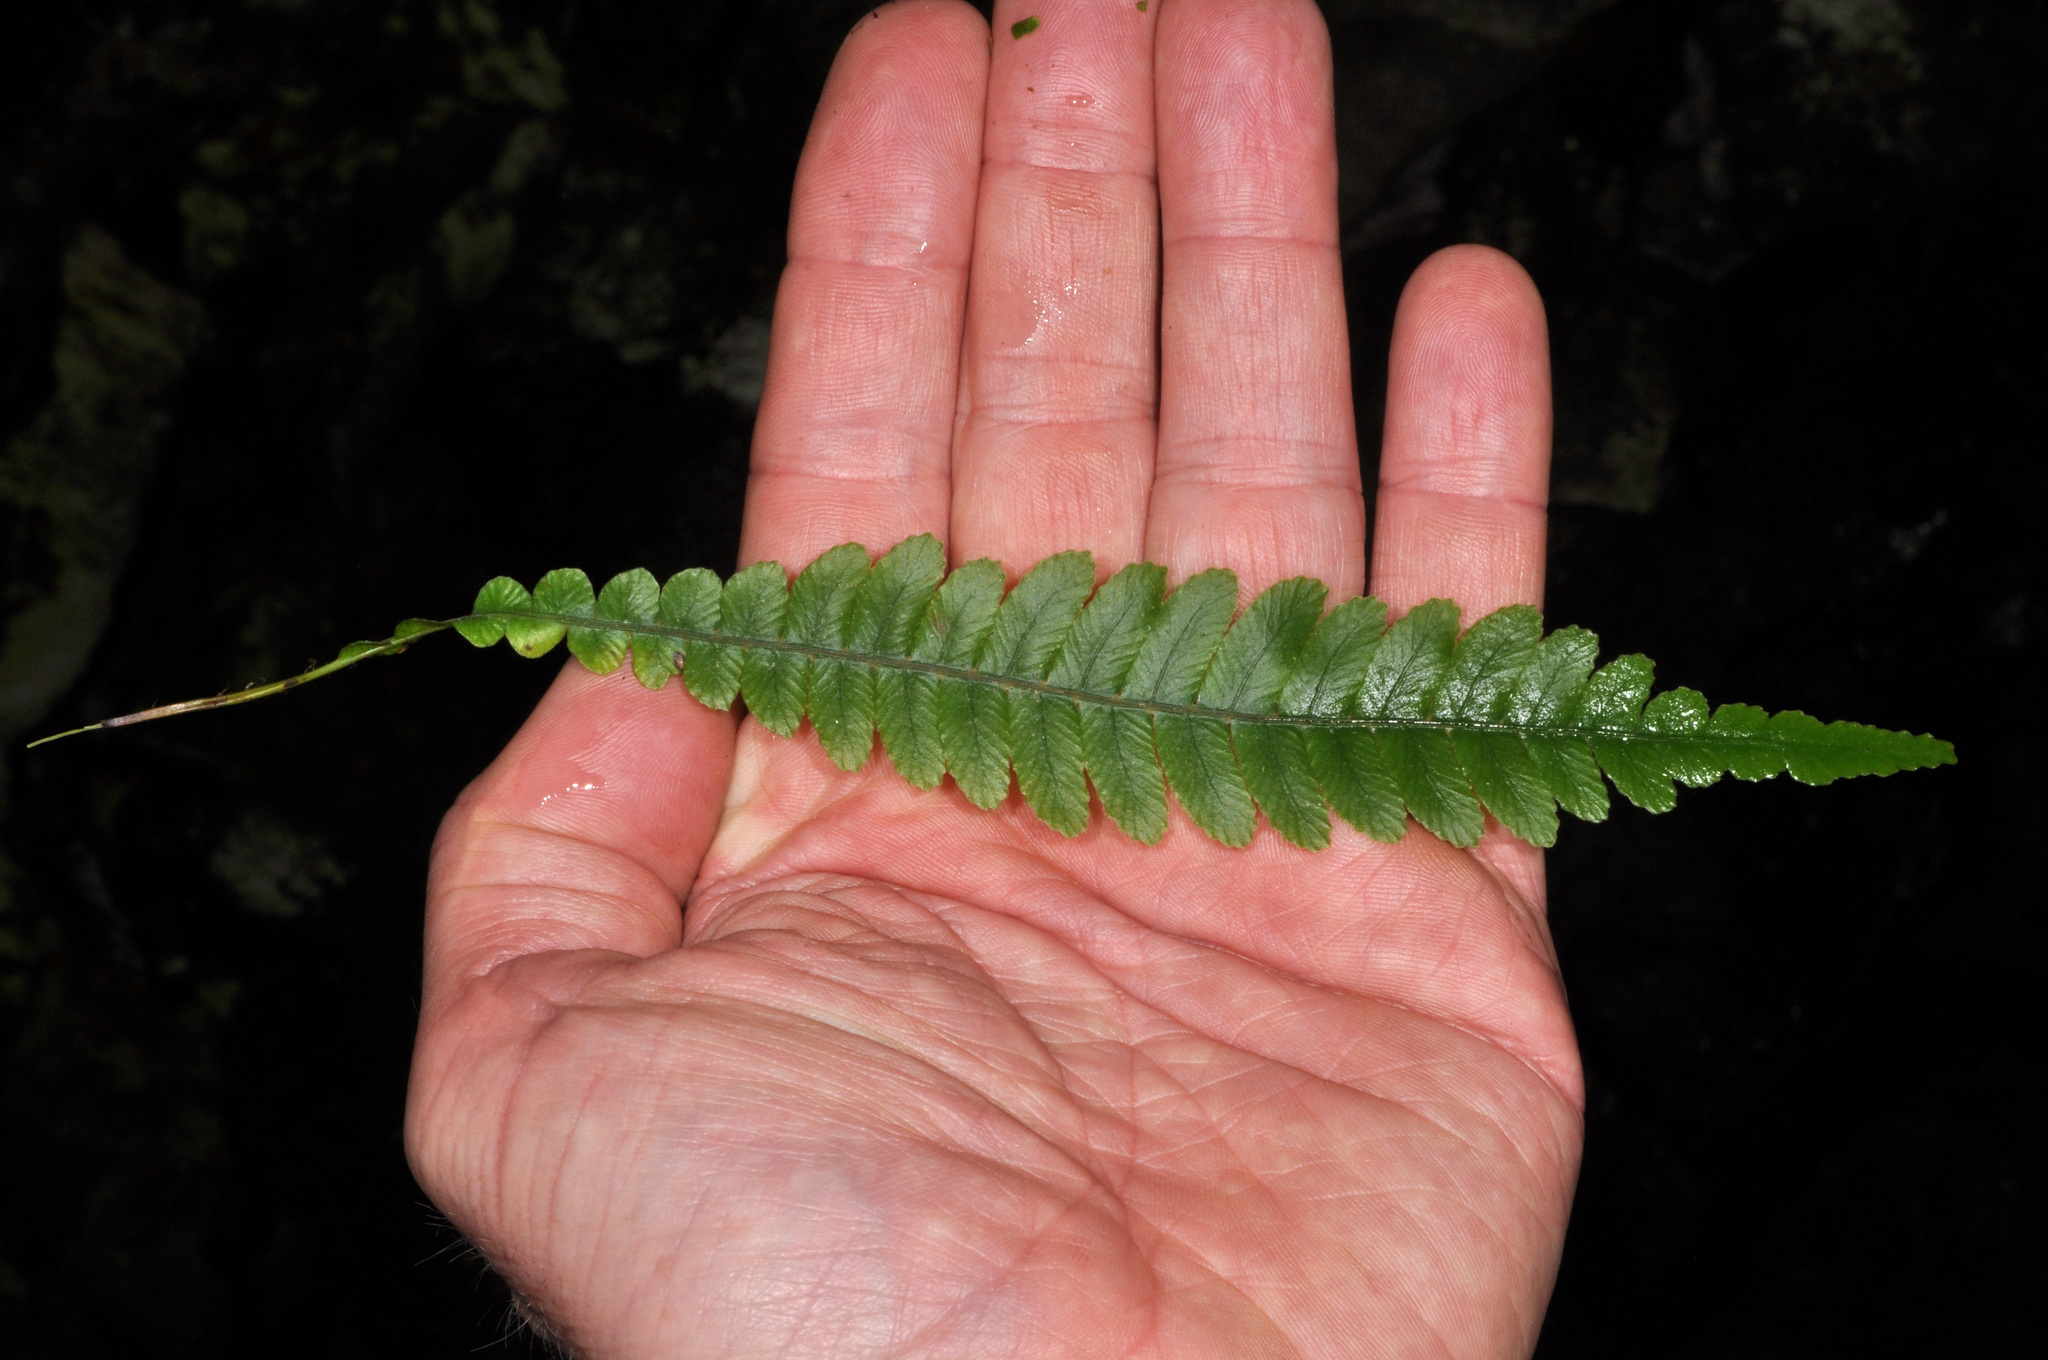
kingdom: Plantae
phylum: Tracheophyta
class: Polypodiopsida
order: Polypodiales
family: Blechnaceae
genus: Austroblechnum
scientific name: Austroblechnum lanceolatum
